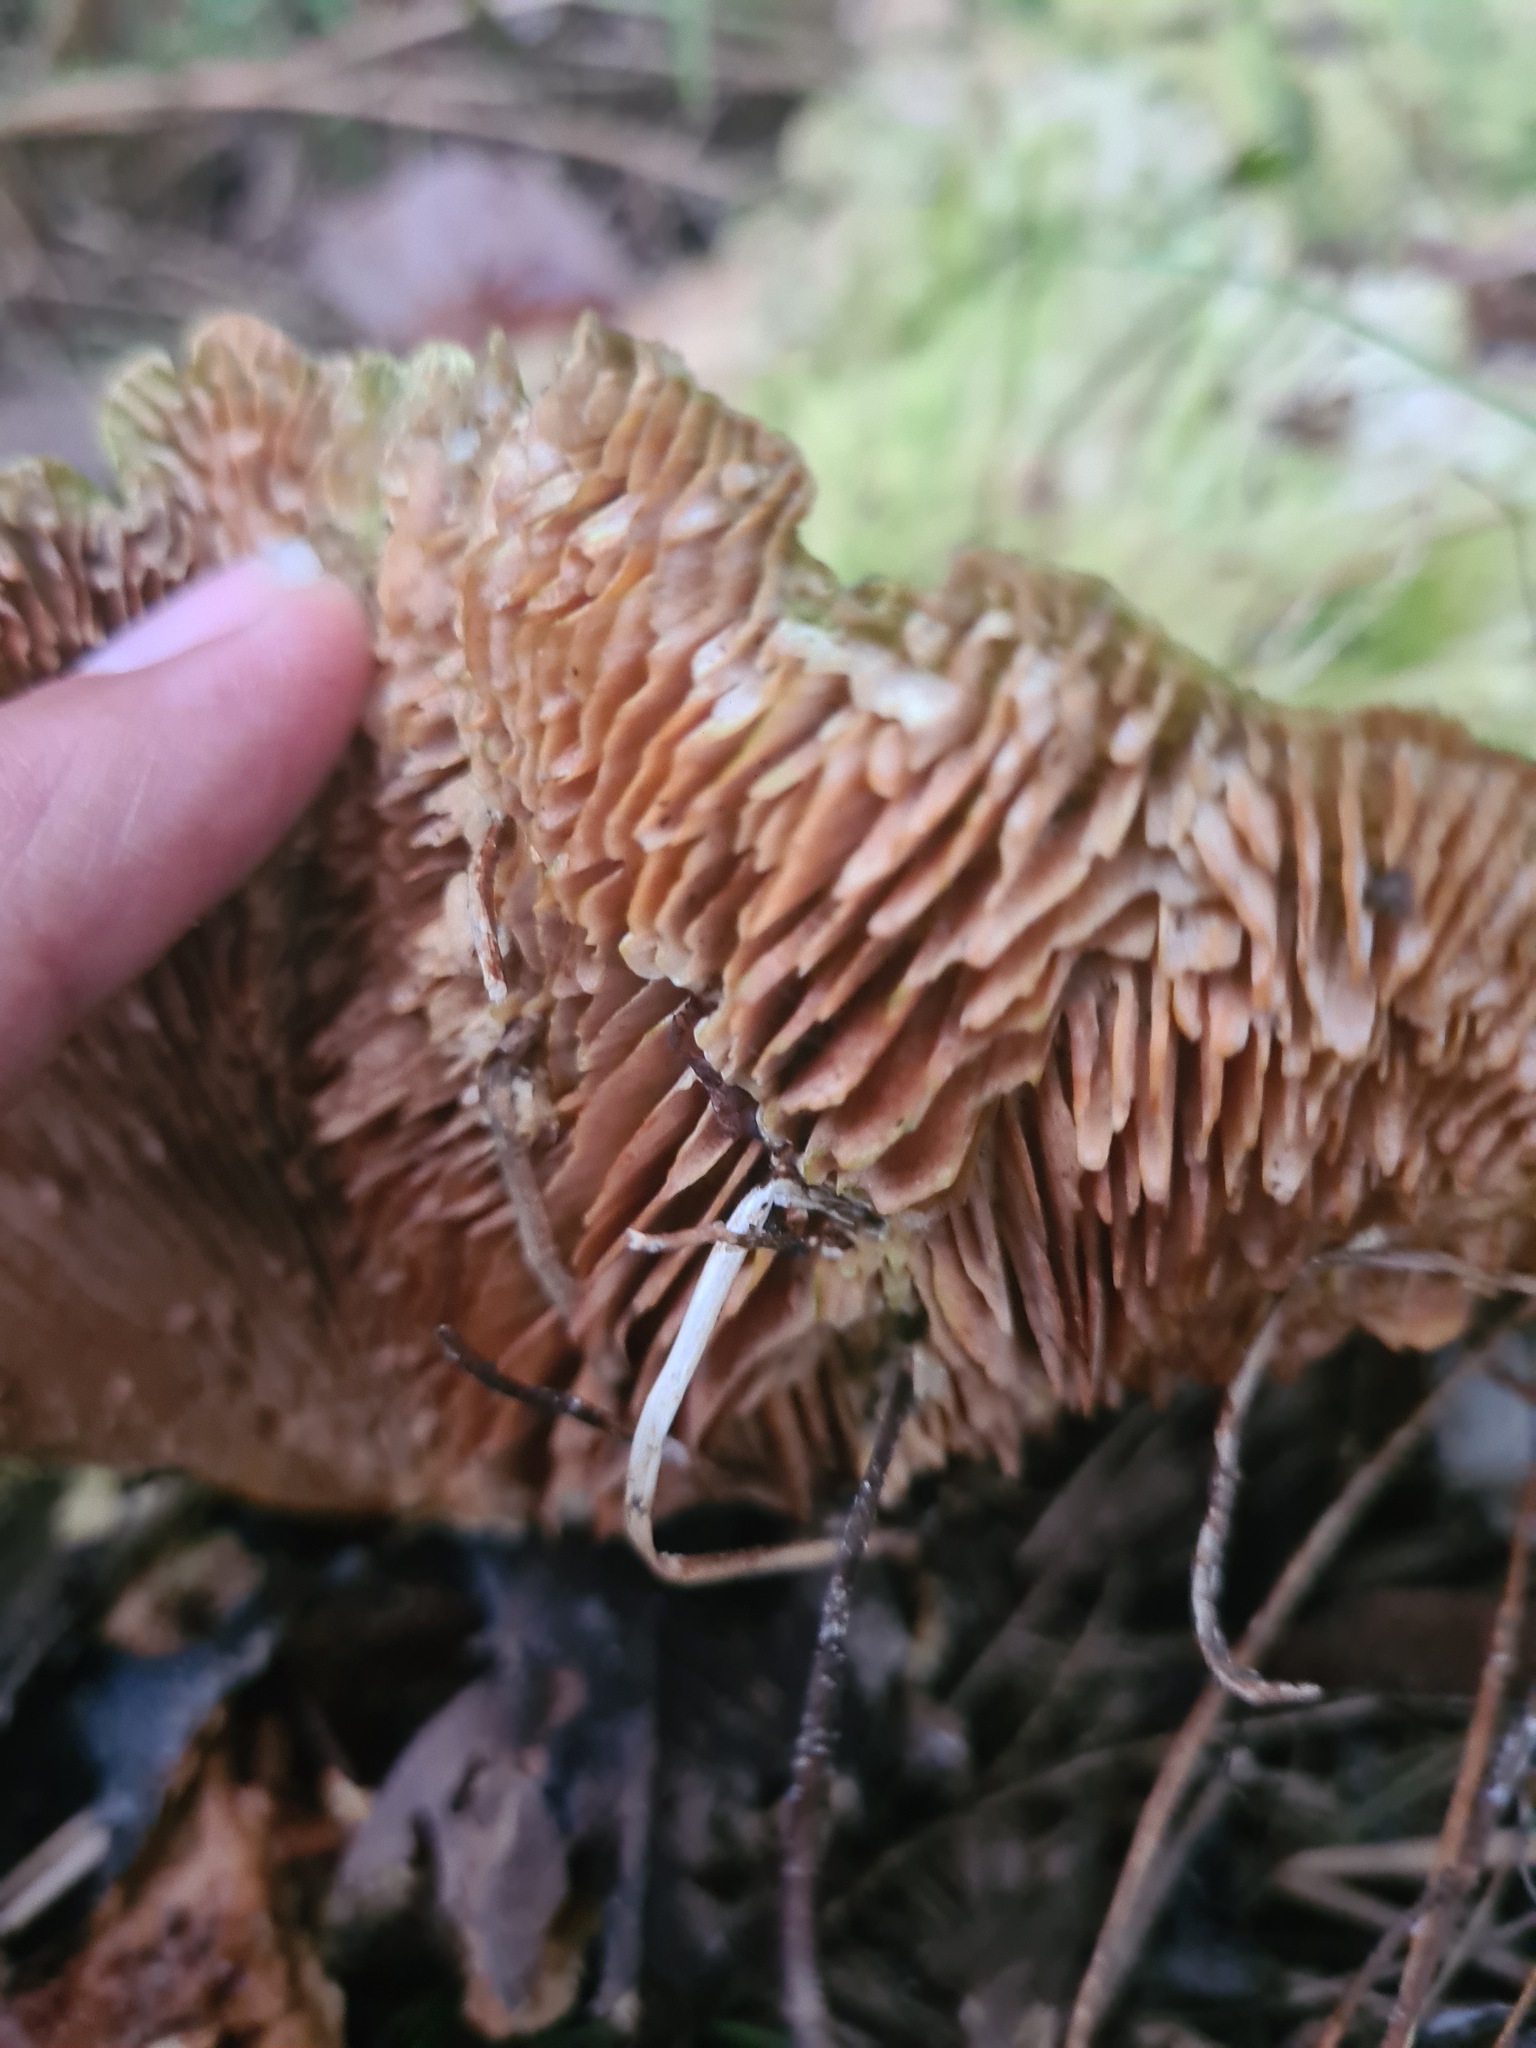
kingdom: Fungi
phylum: Basidiomycota
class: Agaricomycetes
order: Polyporales
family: Panaceae
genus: Cymatoderma
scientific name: Cymatoderma elegans
